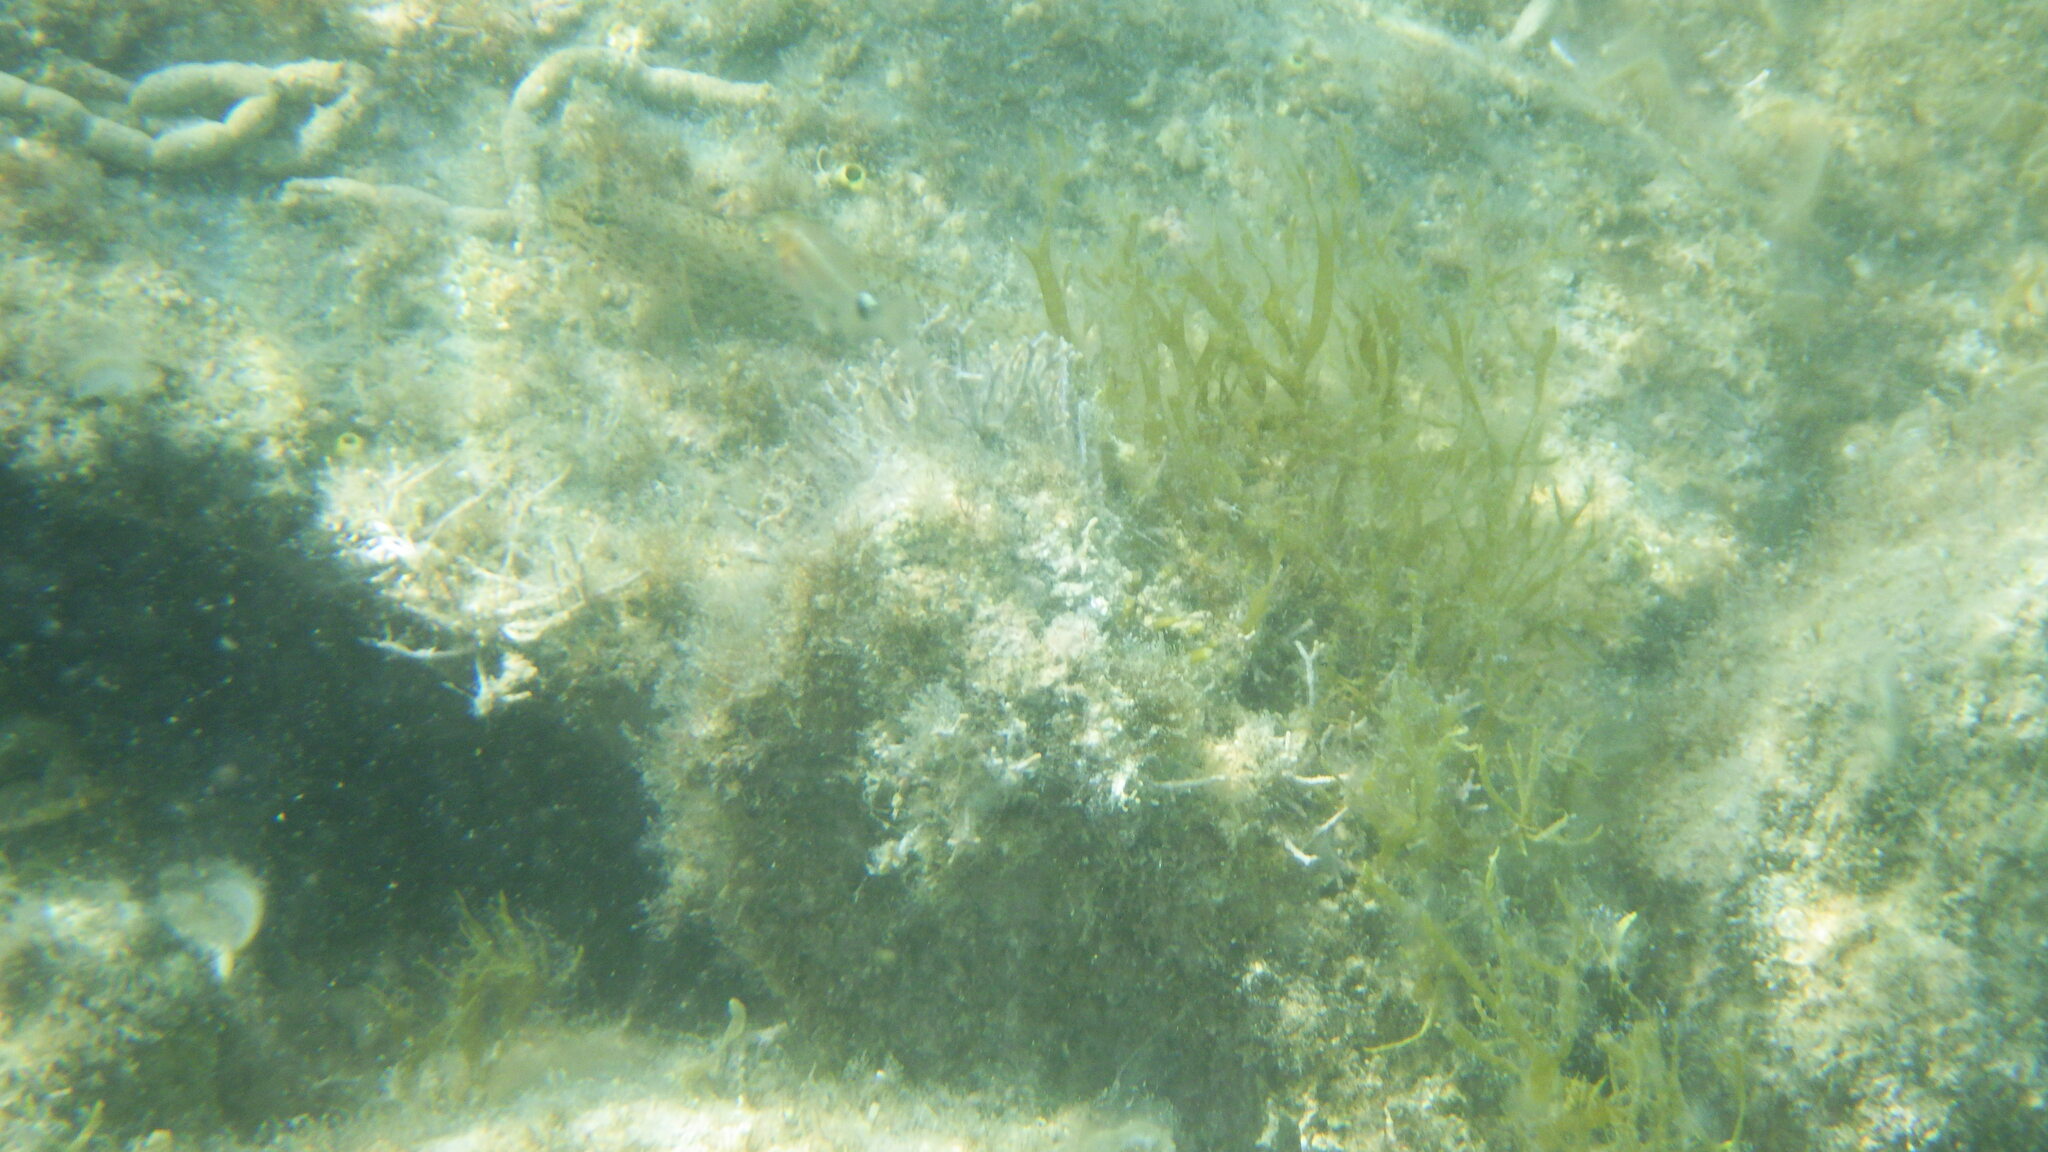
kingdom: Animalia
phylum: Chordata
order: Perciformes
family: Gobiidae
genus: Gobius
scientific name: Gobius incognitus
